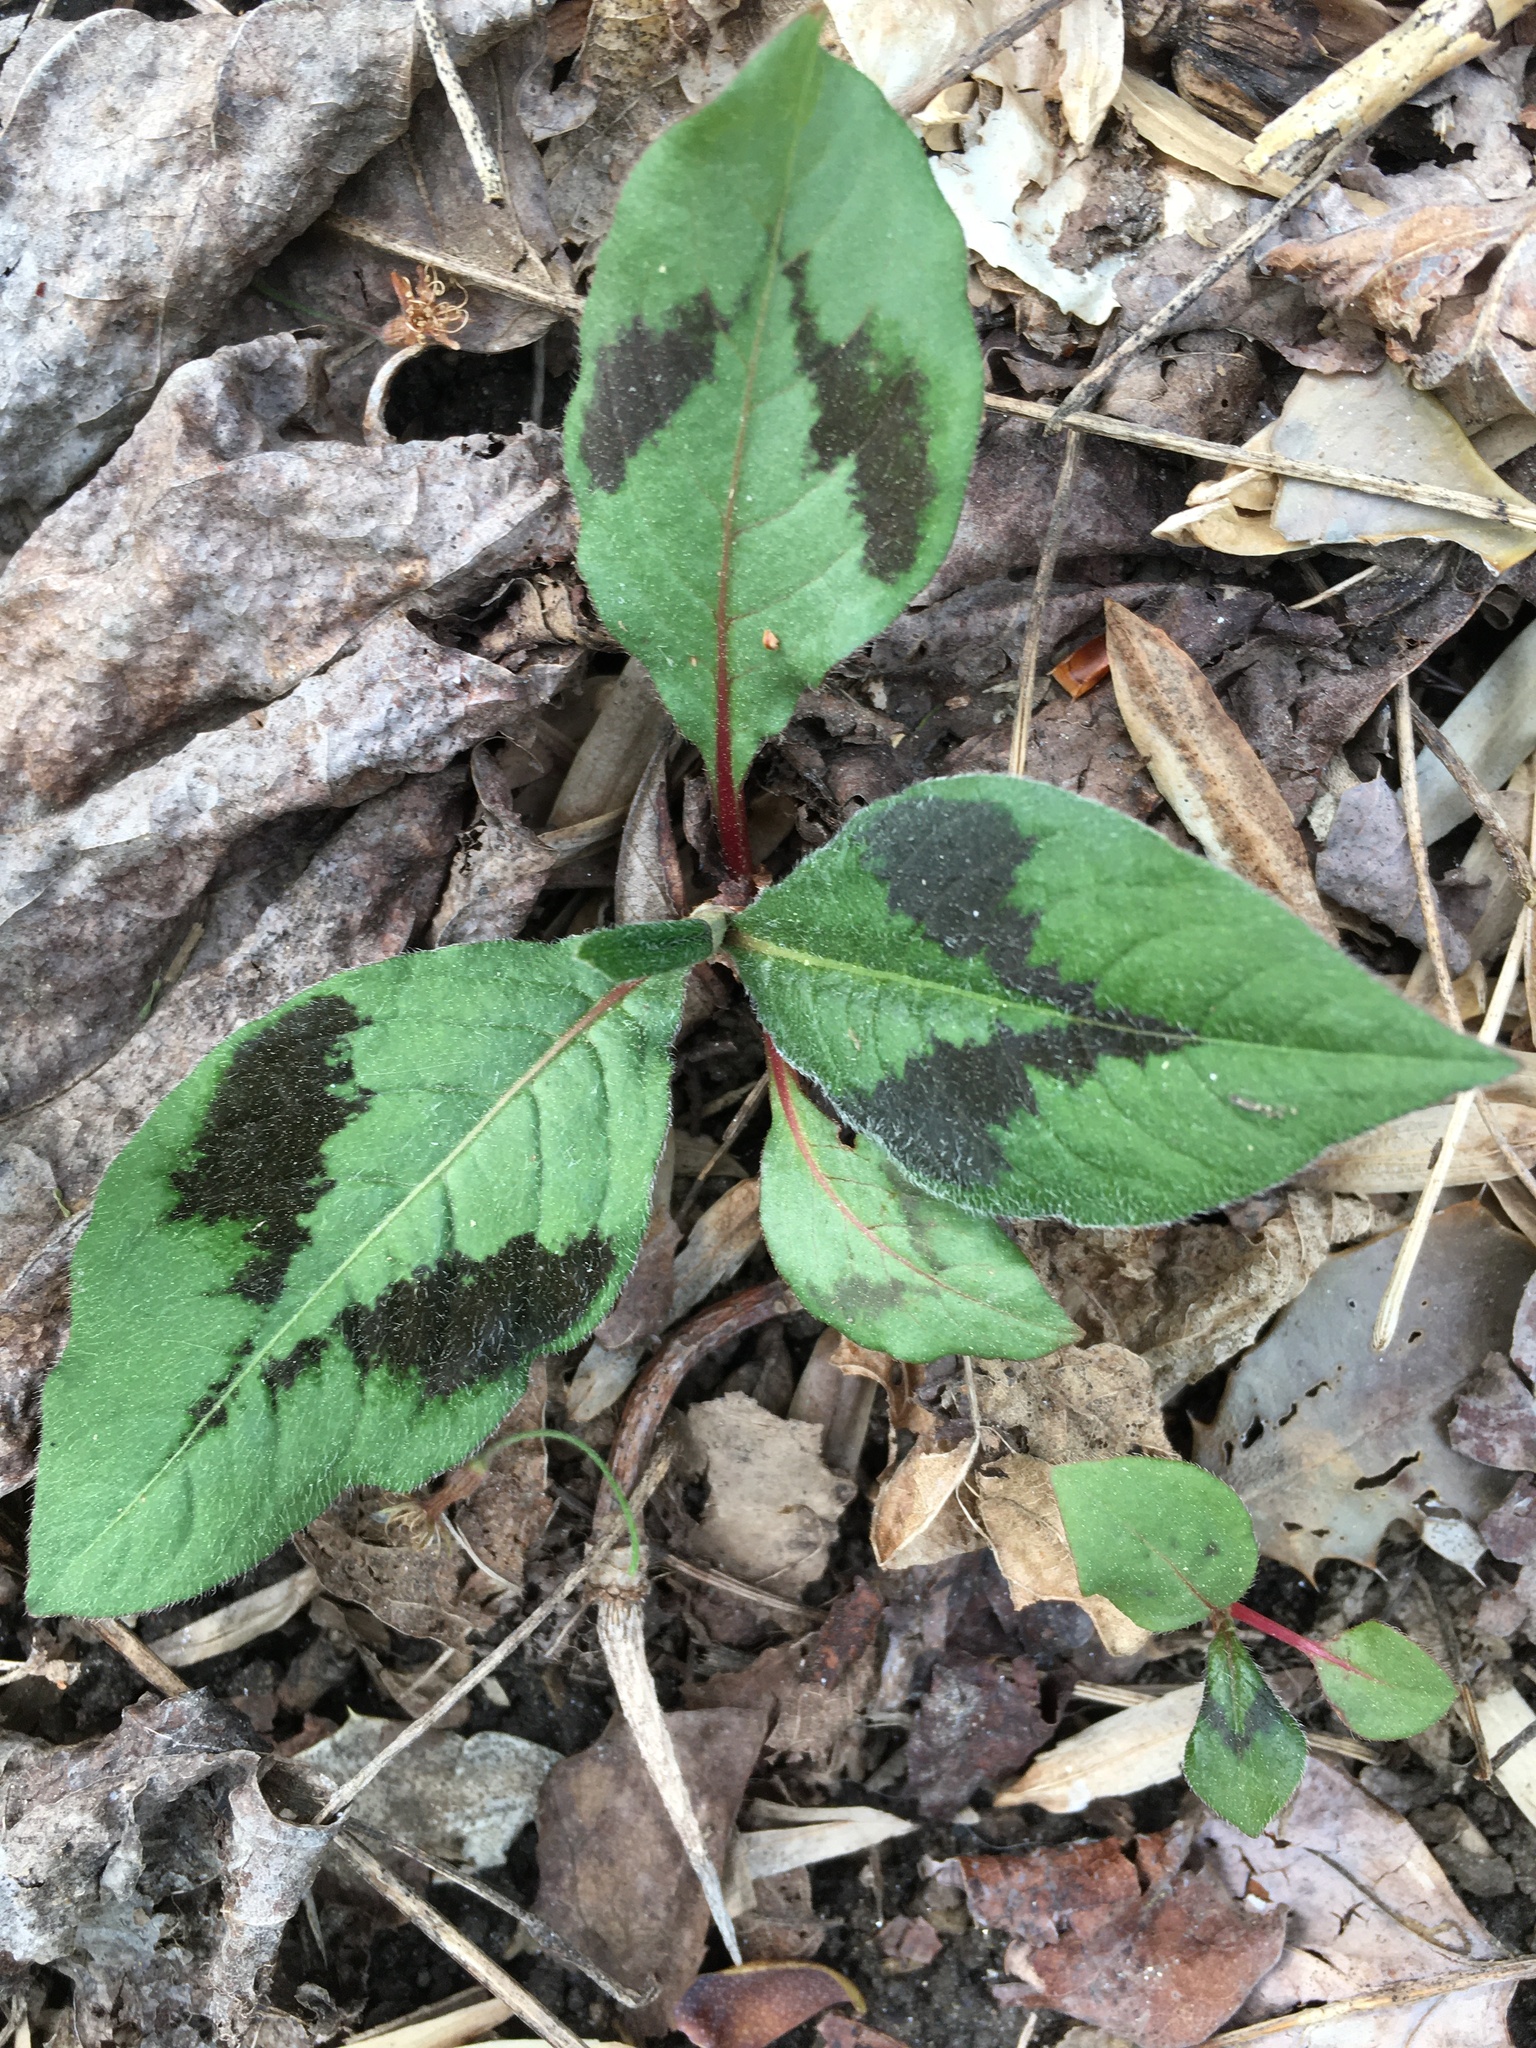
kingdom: Plantae
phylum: Tracheophyta
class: Magnoliopsida
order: Caryophyllales
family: Polygonaceae
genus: Persicaria
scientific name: Persicaria filiformis
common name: Asian jumpseed
